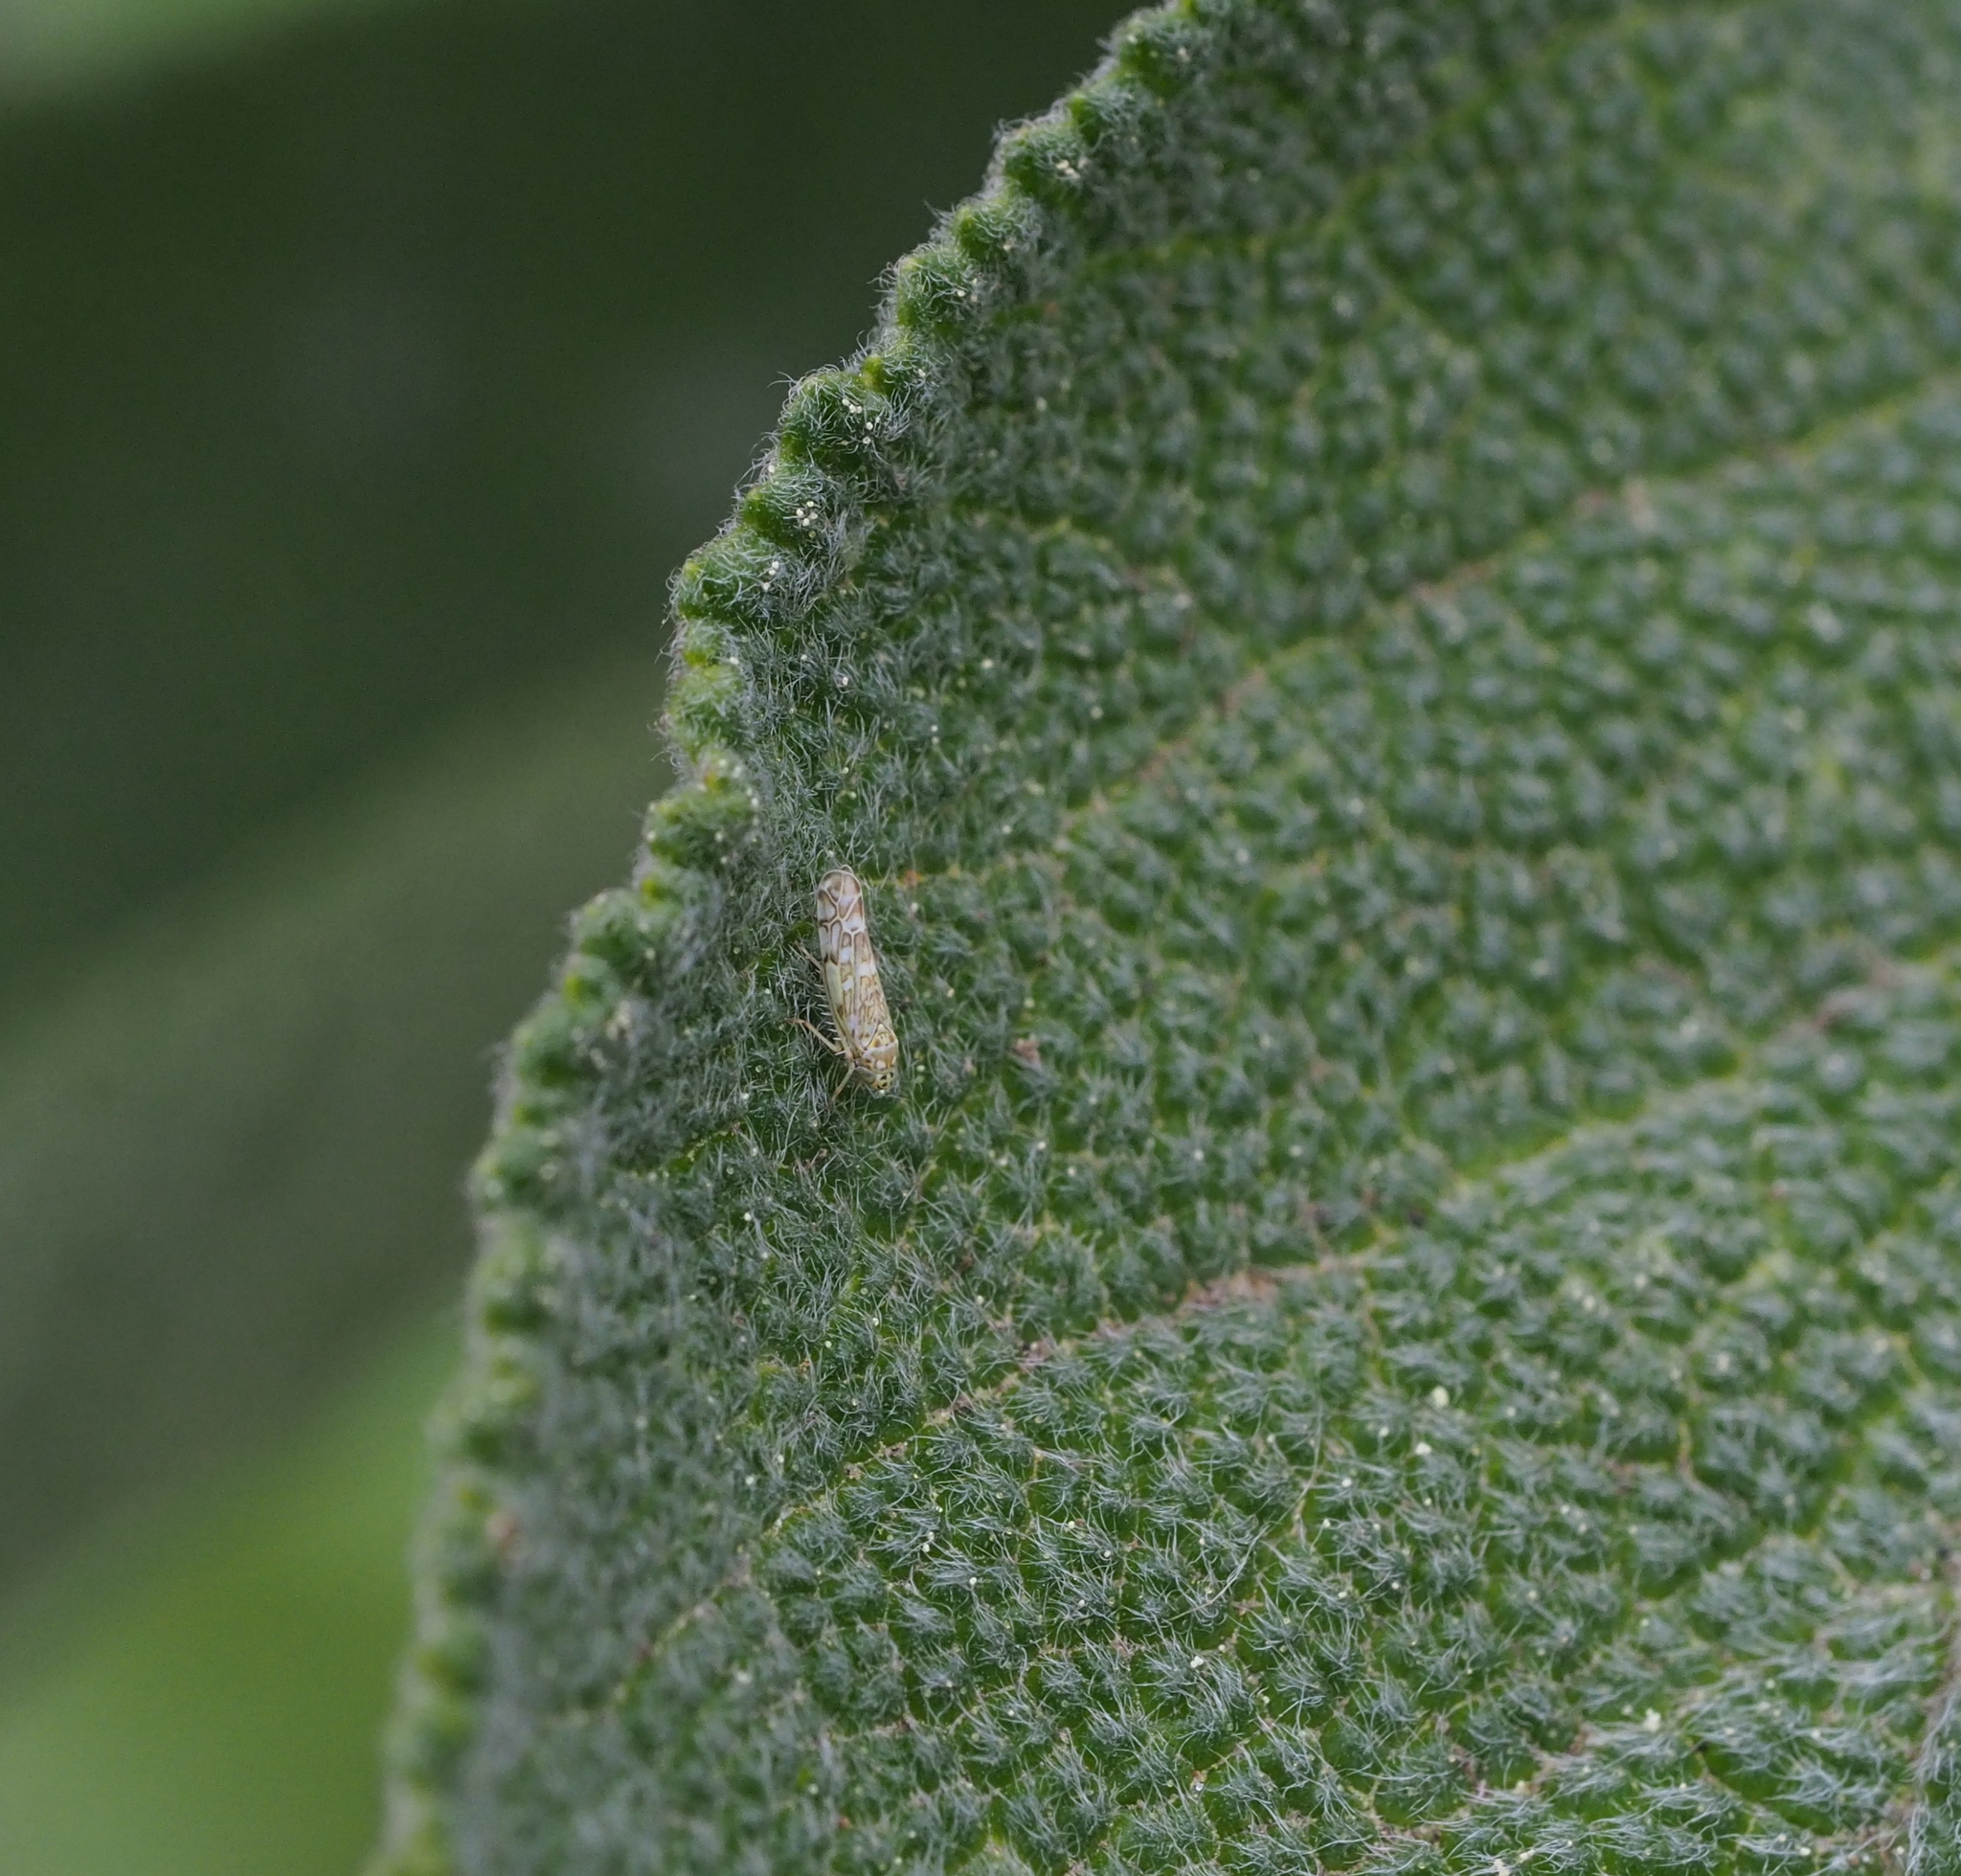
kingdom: Animalia
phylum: Arthropoda
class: Insecta
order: Hemiptera
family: Cicadellidae
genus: Eupteryx
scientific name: Eupteryx decemnotata
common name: Ligurian leafhopper
